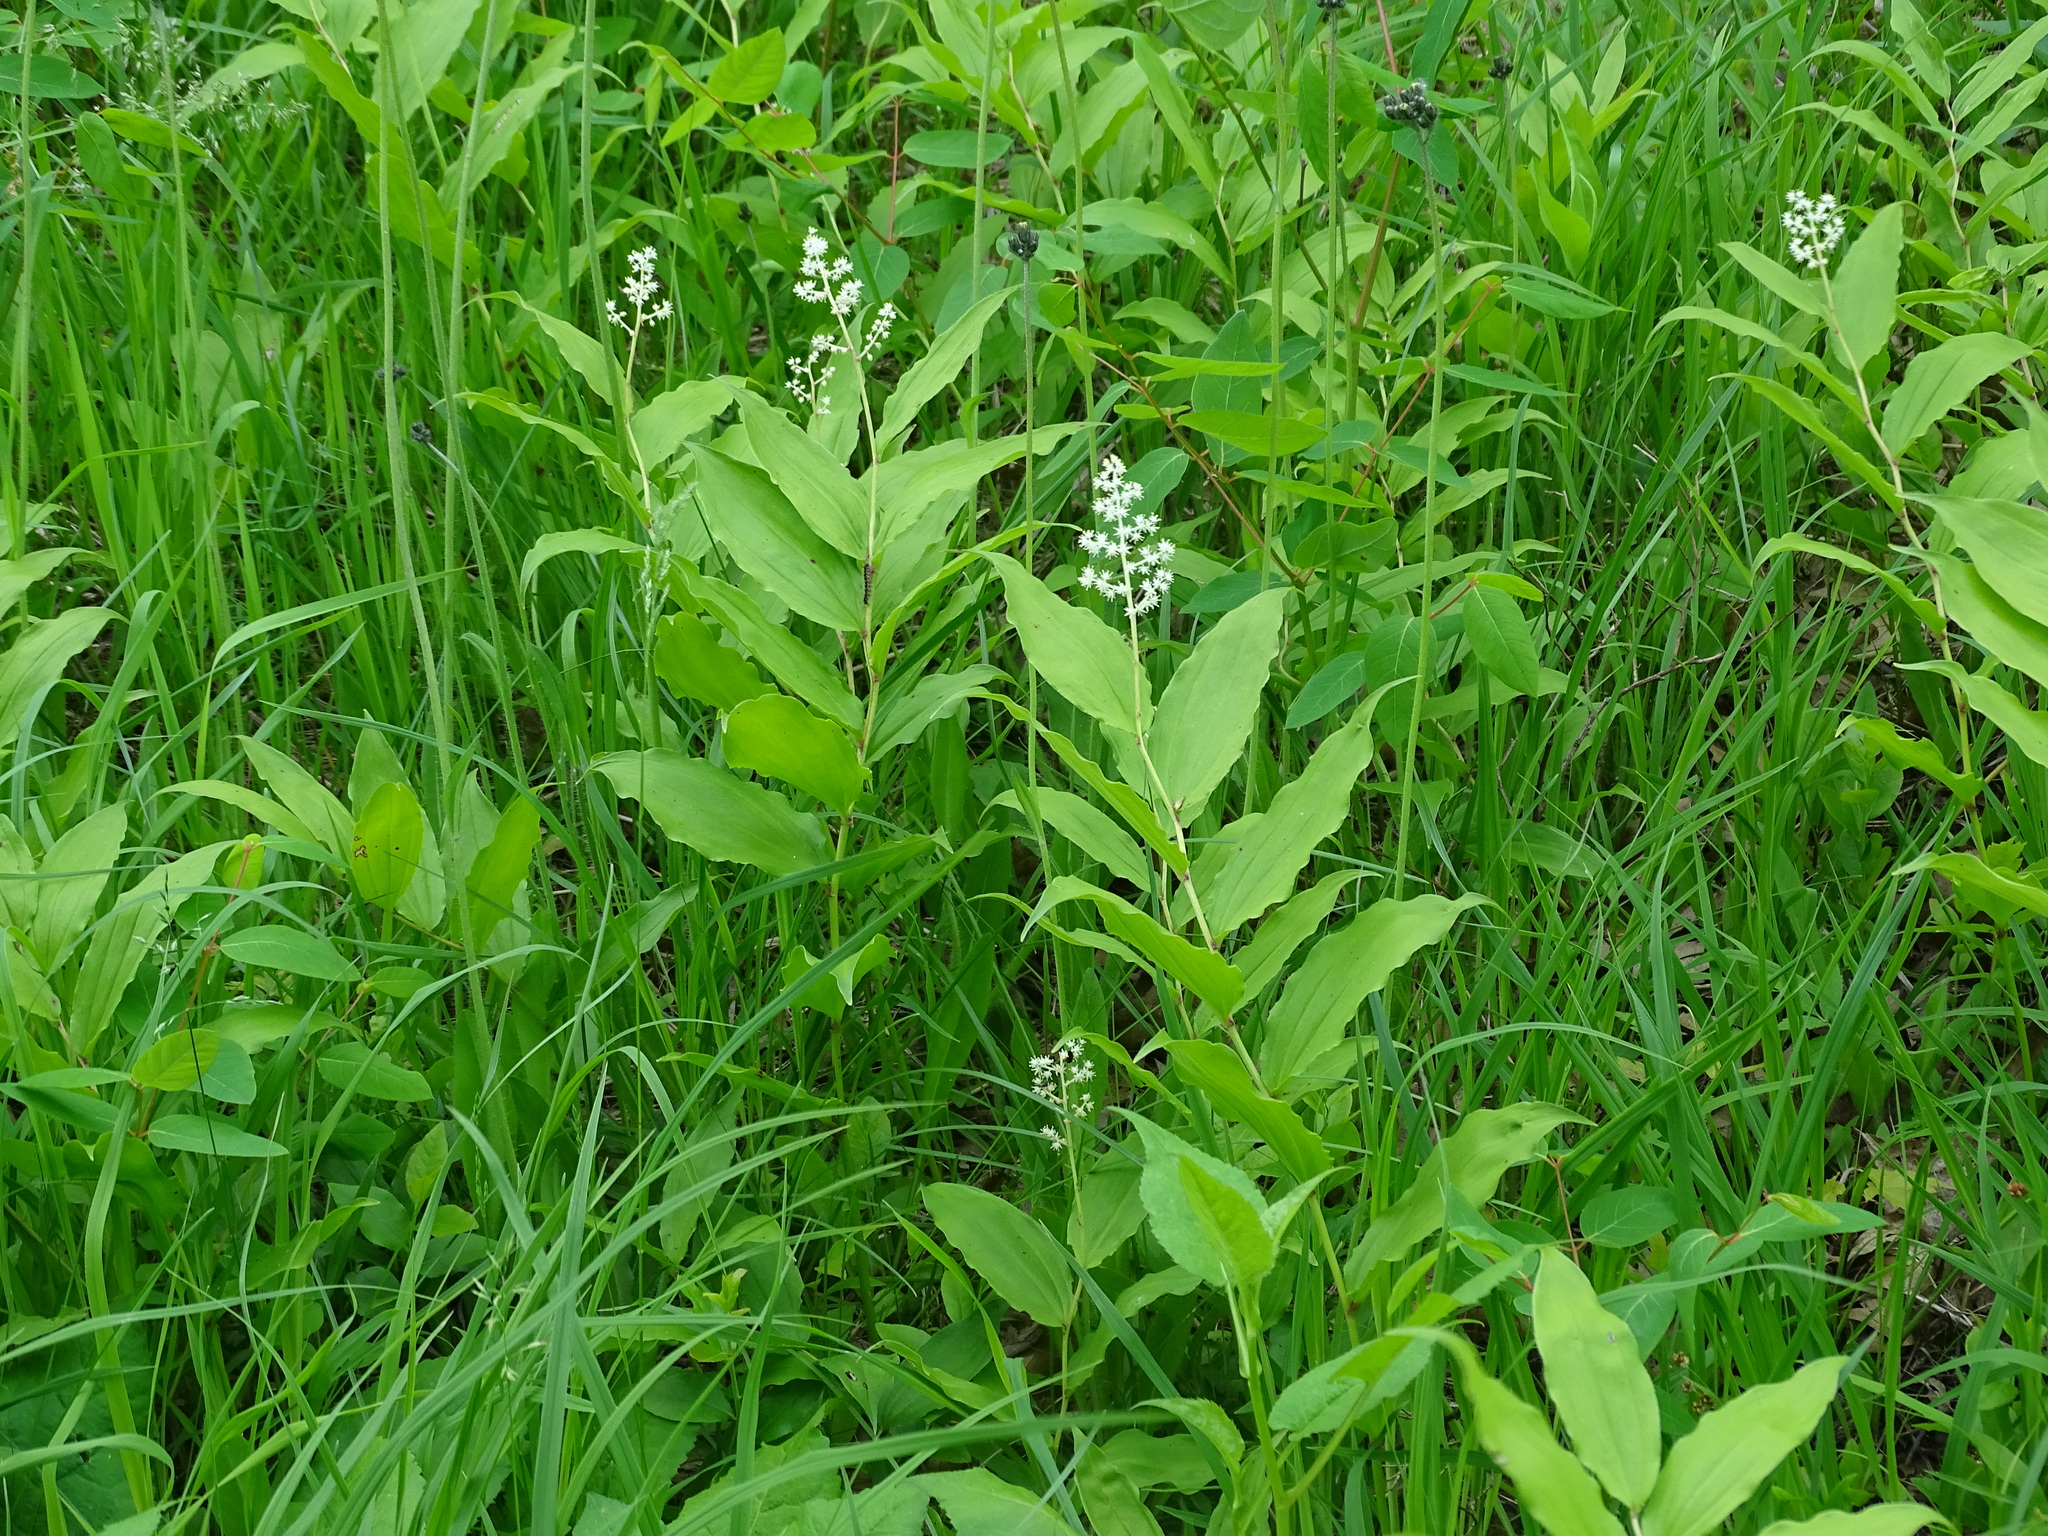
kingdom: Plantae
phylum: Tracheophyta
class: Liliopsida
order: Asparagales
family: Asparagaceae
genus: Maianthemum
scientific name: Maianthemum racemosum
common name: False spikenard
